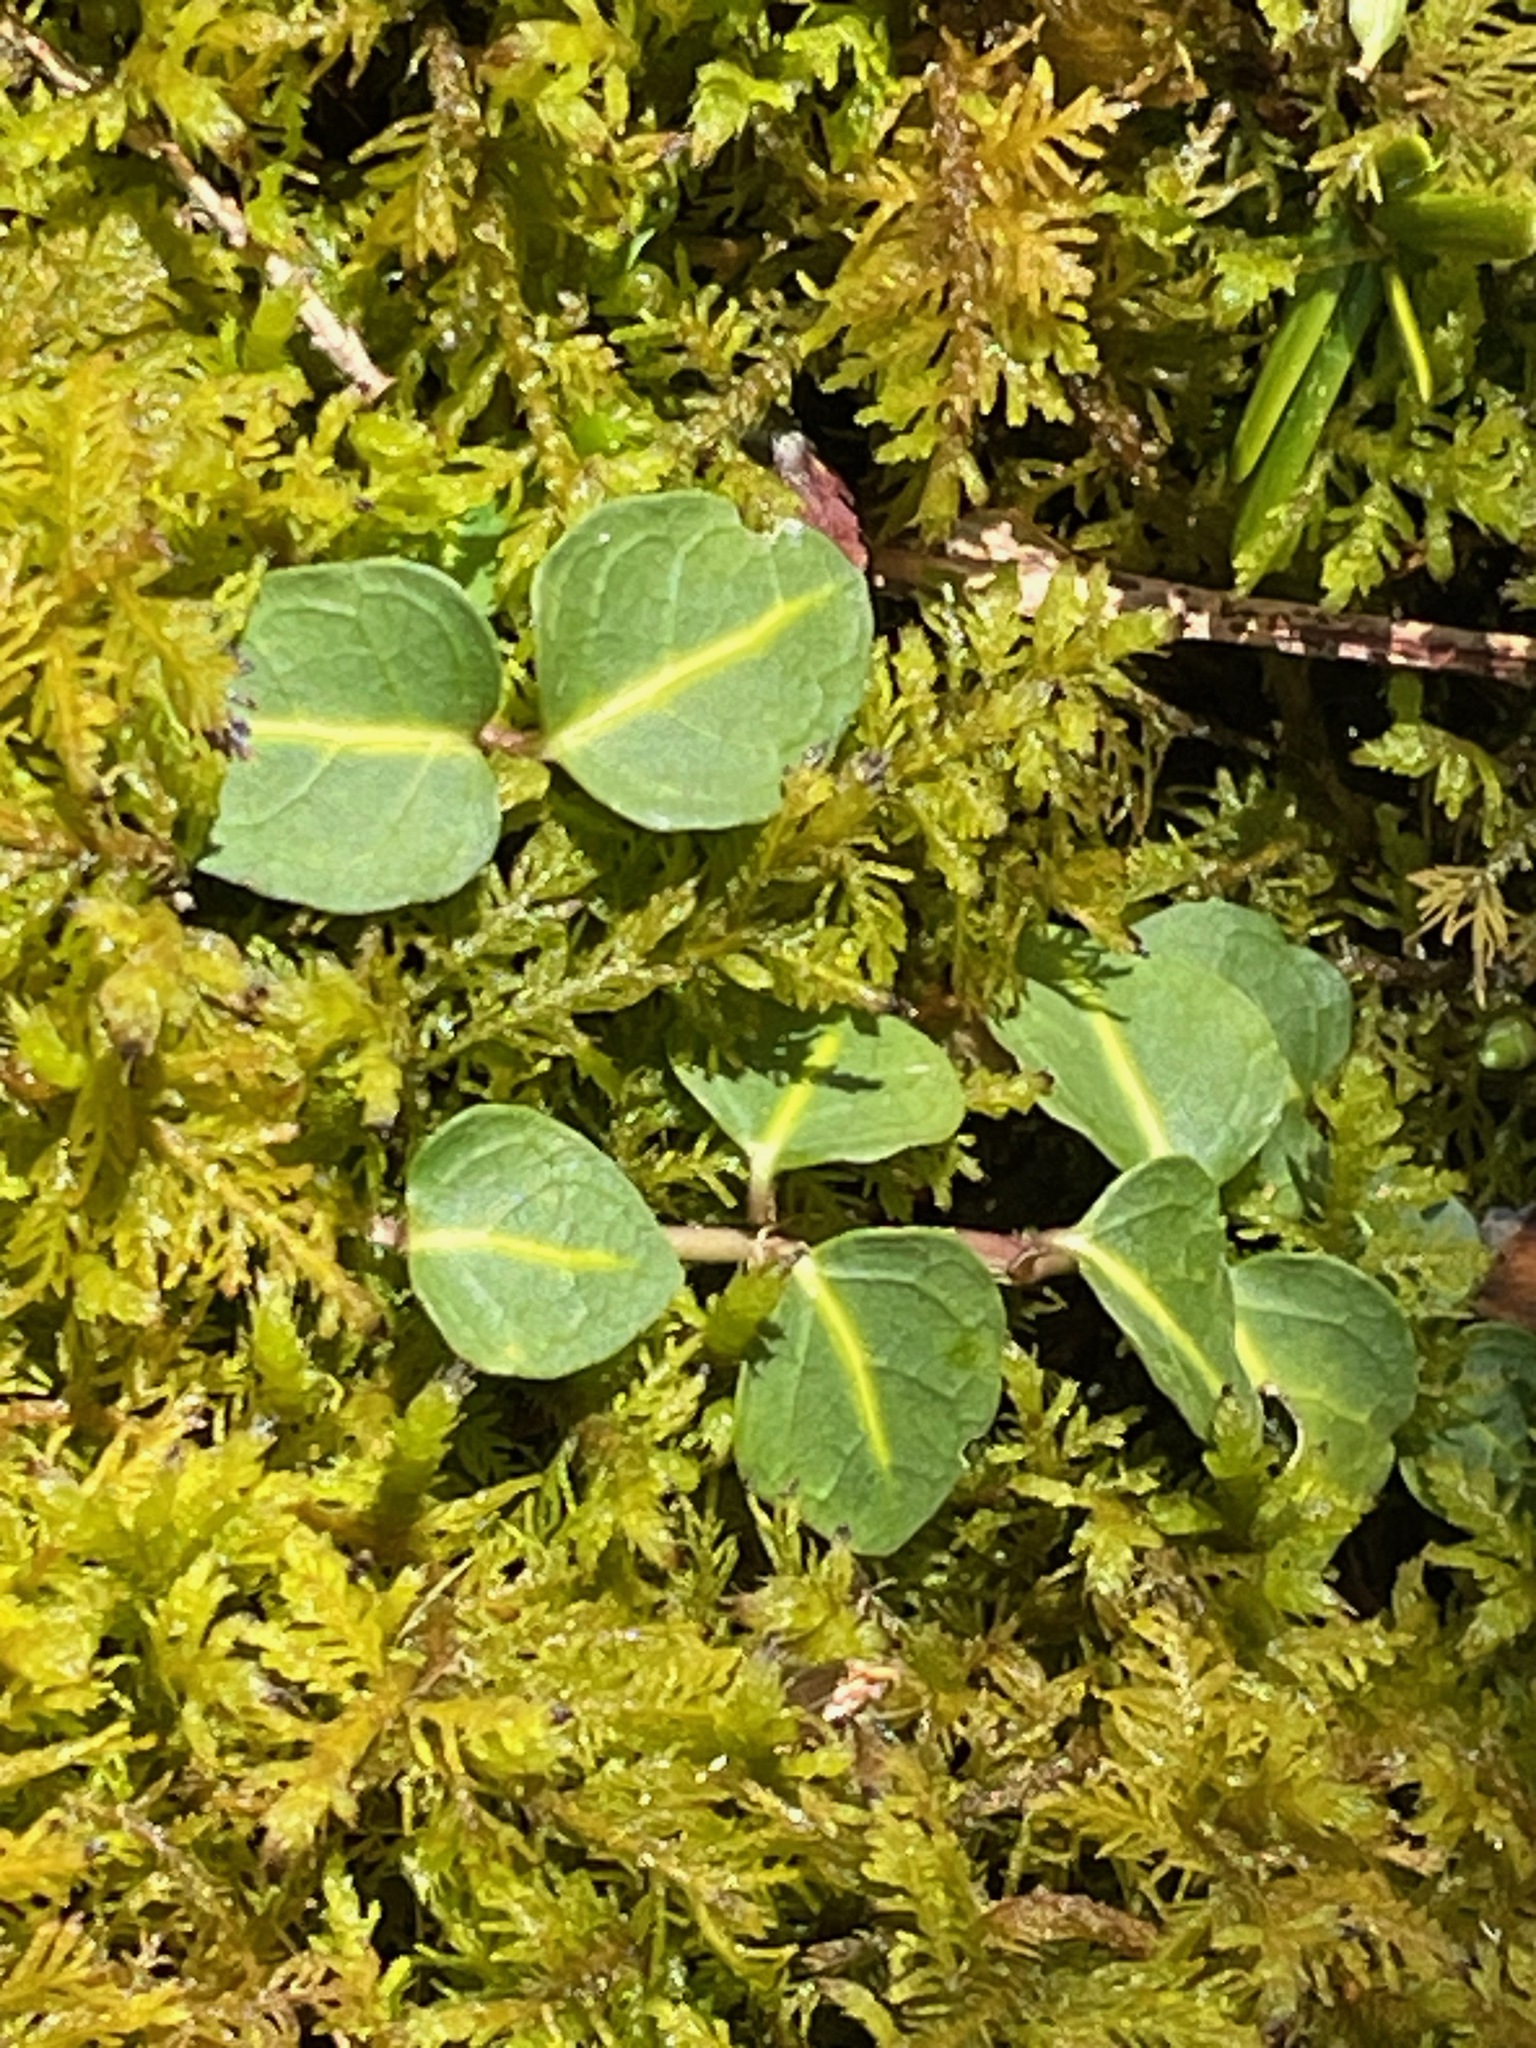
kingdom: Plantae
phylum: Tracheophyta
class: Magnoliopsida
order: Gentianales
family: Rubiaceae
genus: Mitchella
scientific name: Mitchella repens
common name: Partridge-berry
